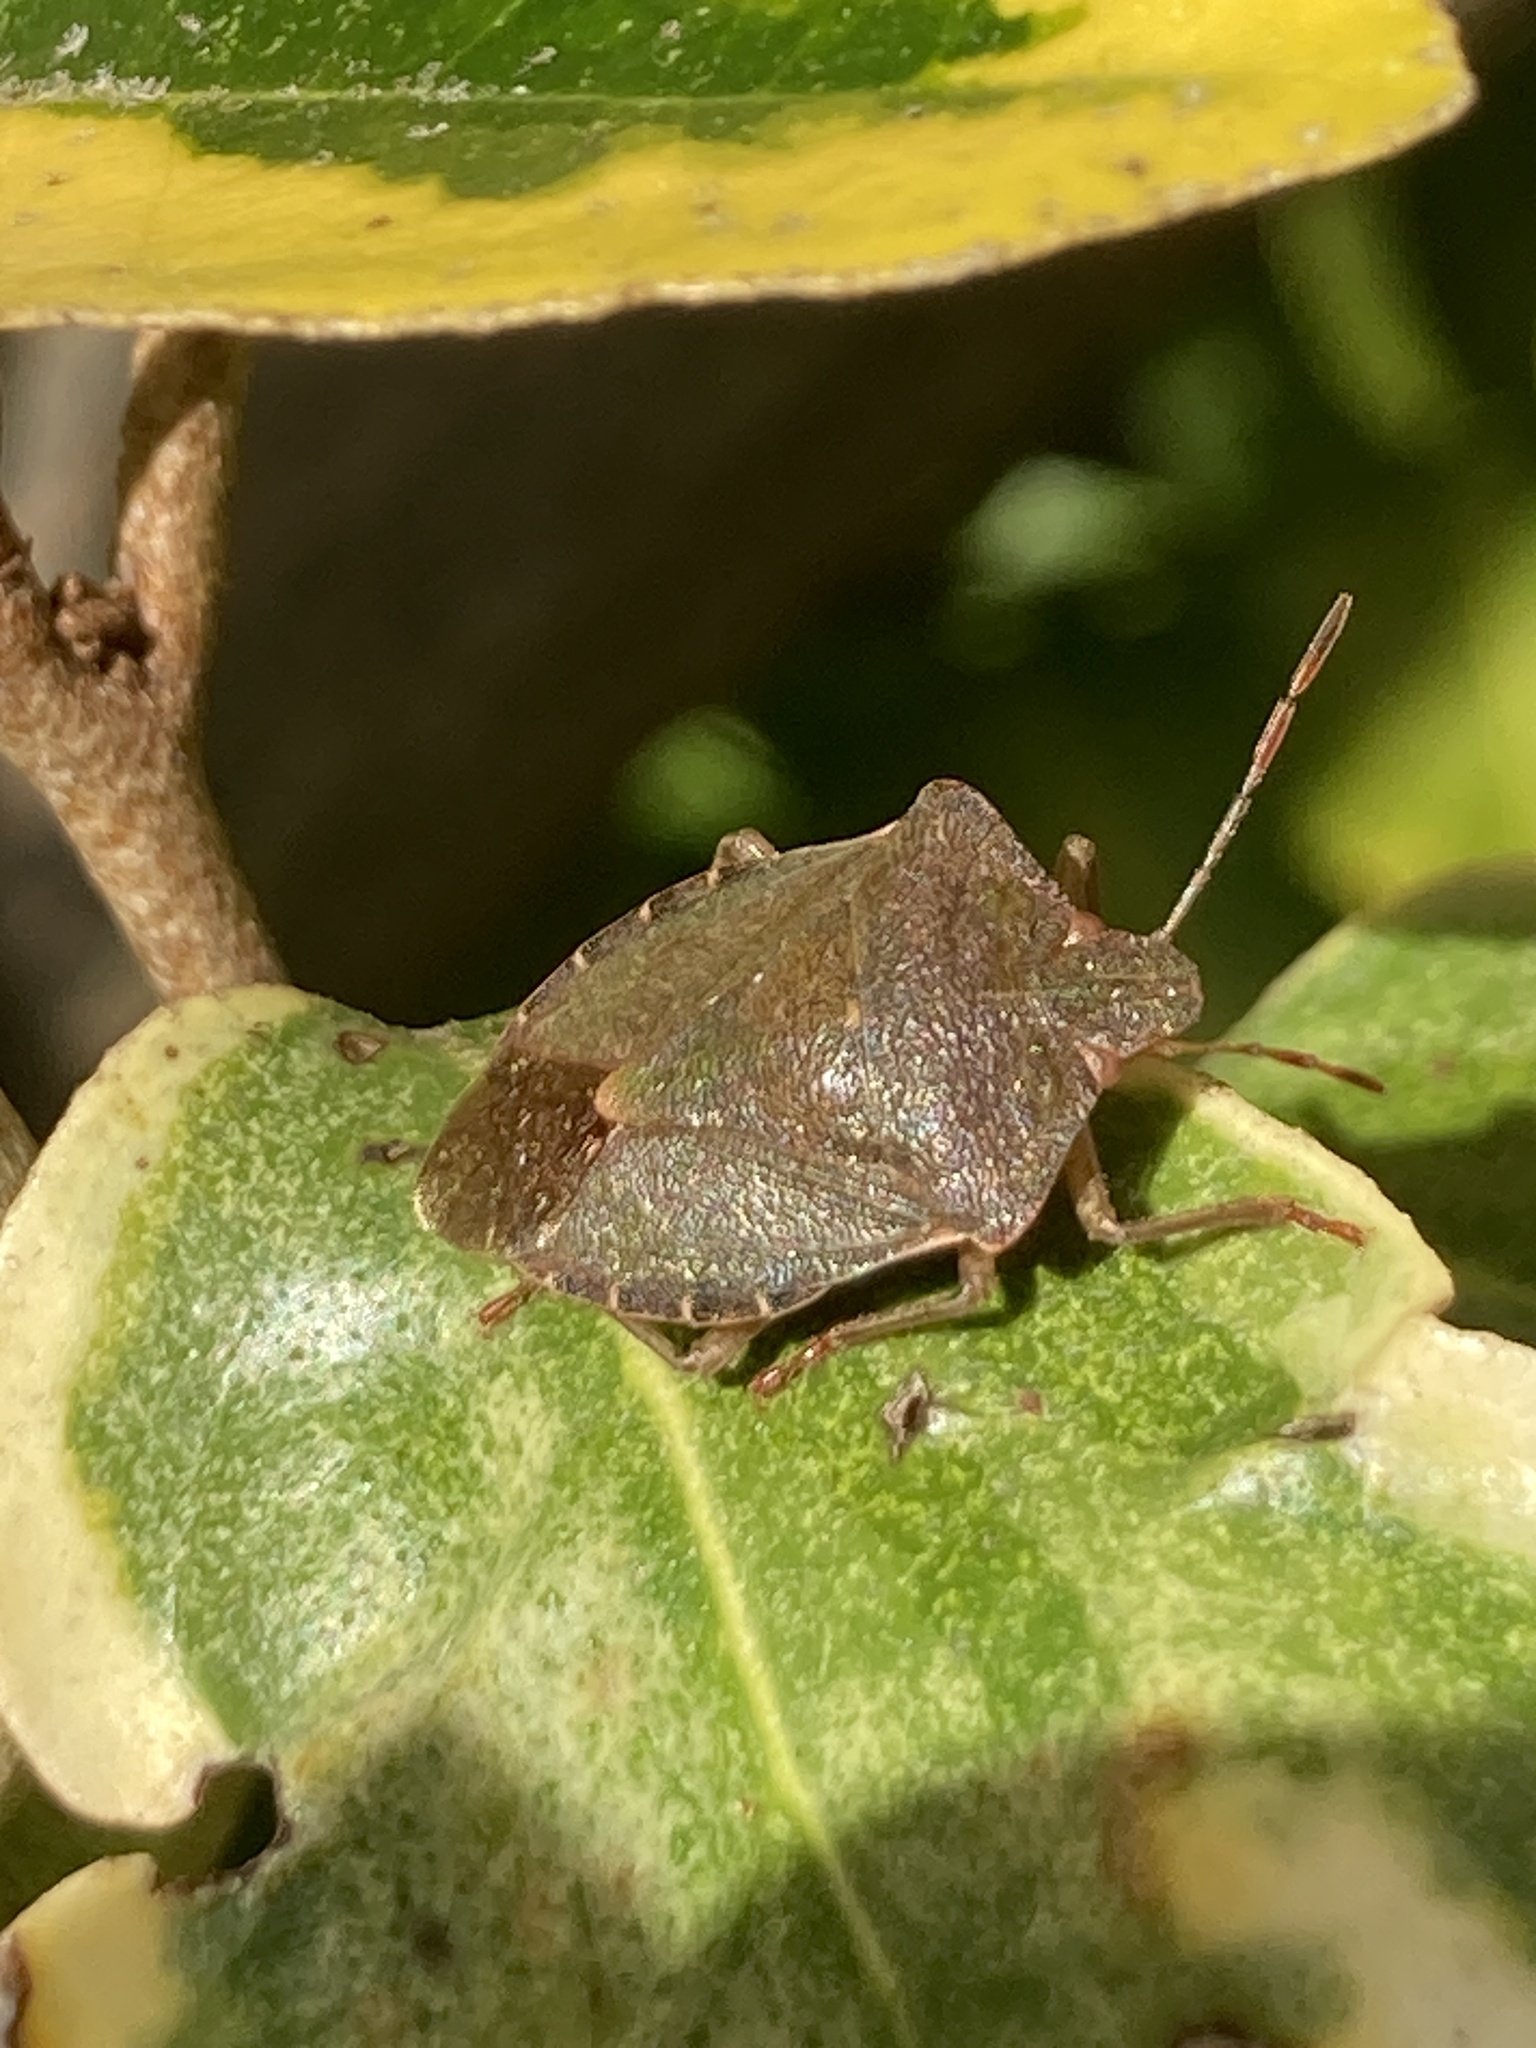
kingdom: Animalia
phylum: Arthropoda
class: Insecta
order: Hemiptera
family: Pentatomidae
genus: Palomena
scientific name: Palomena prasina
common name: Green shieldbug
